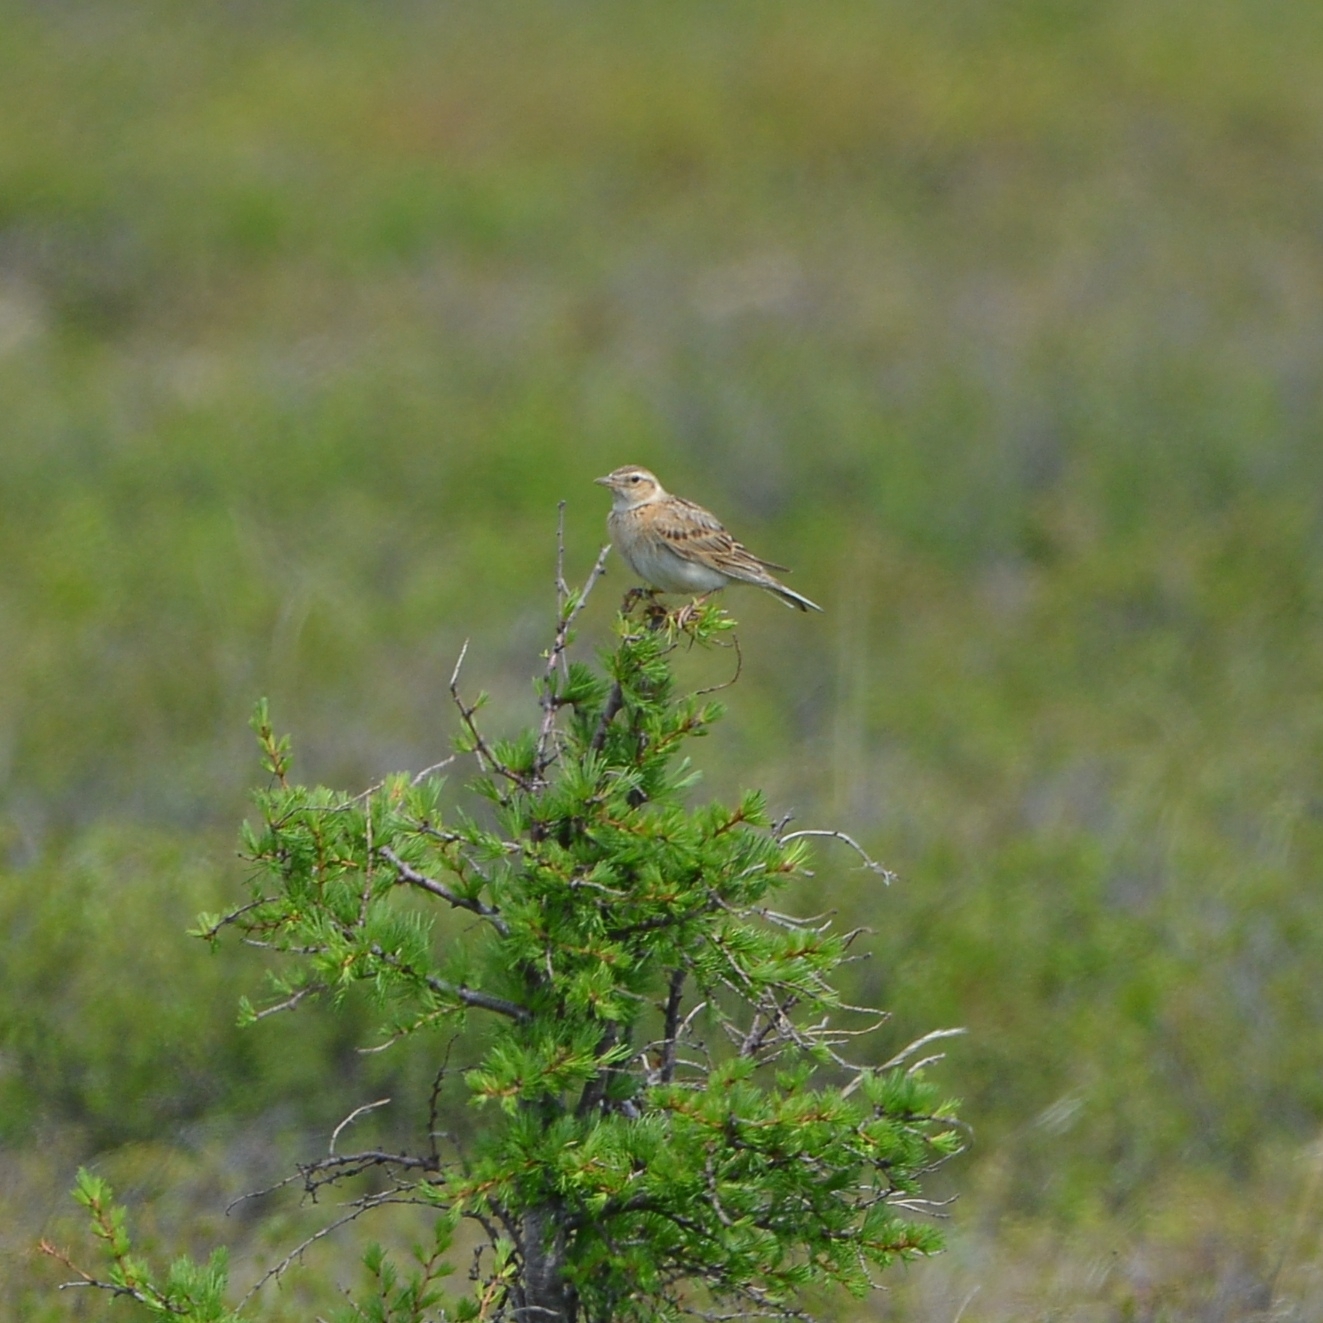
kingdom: Animalia
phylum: Chordata
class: Aves
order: Passeriformes
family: Alaudidae
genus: Alauda
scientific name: Alauda arvensis
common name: Eurasian skylark
